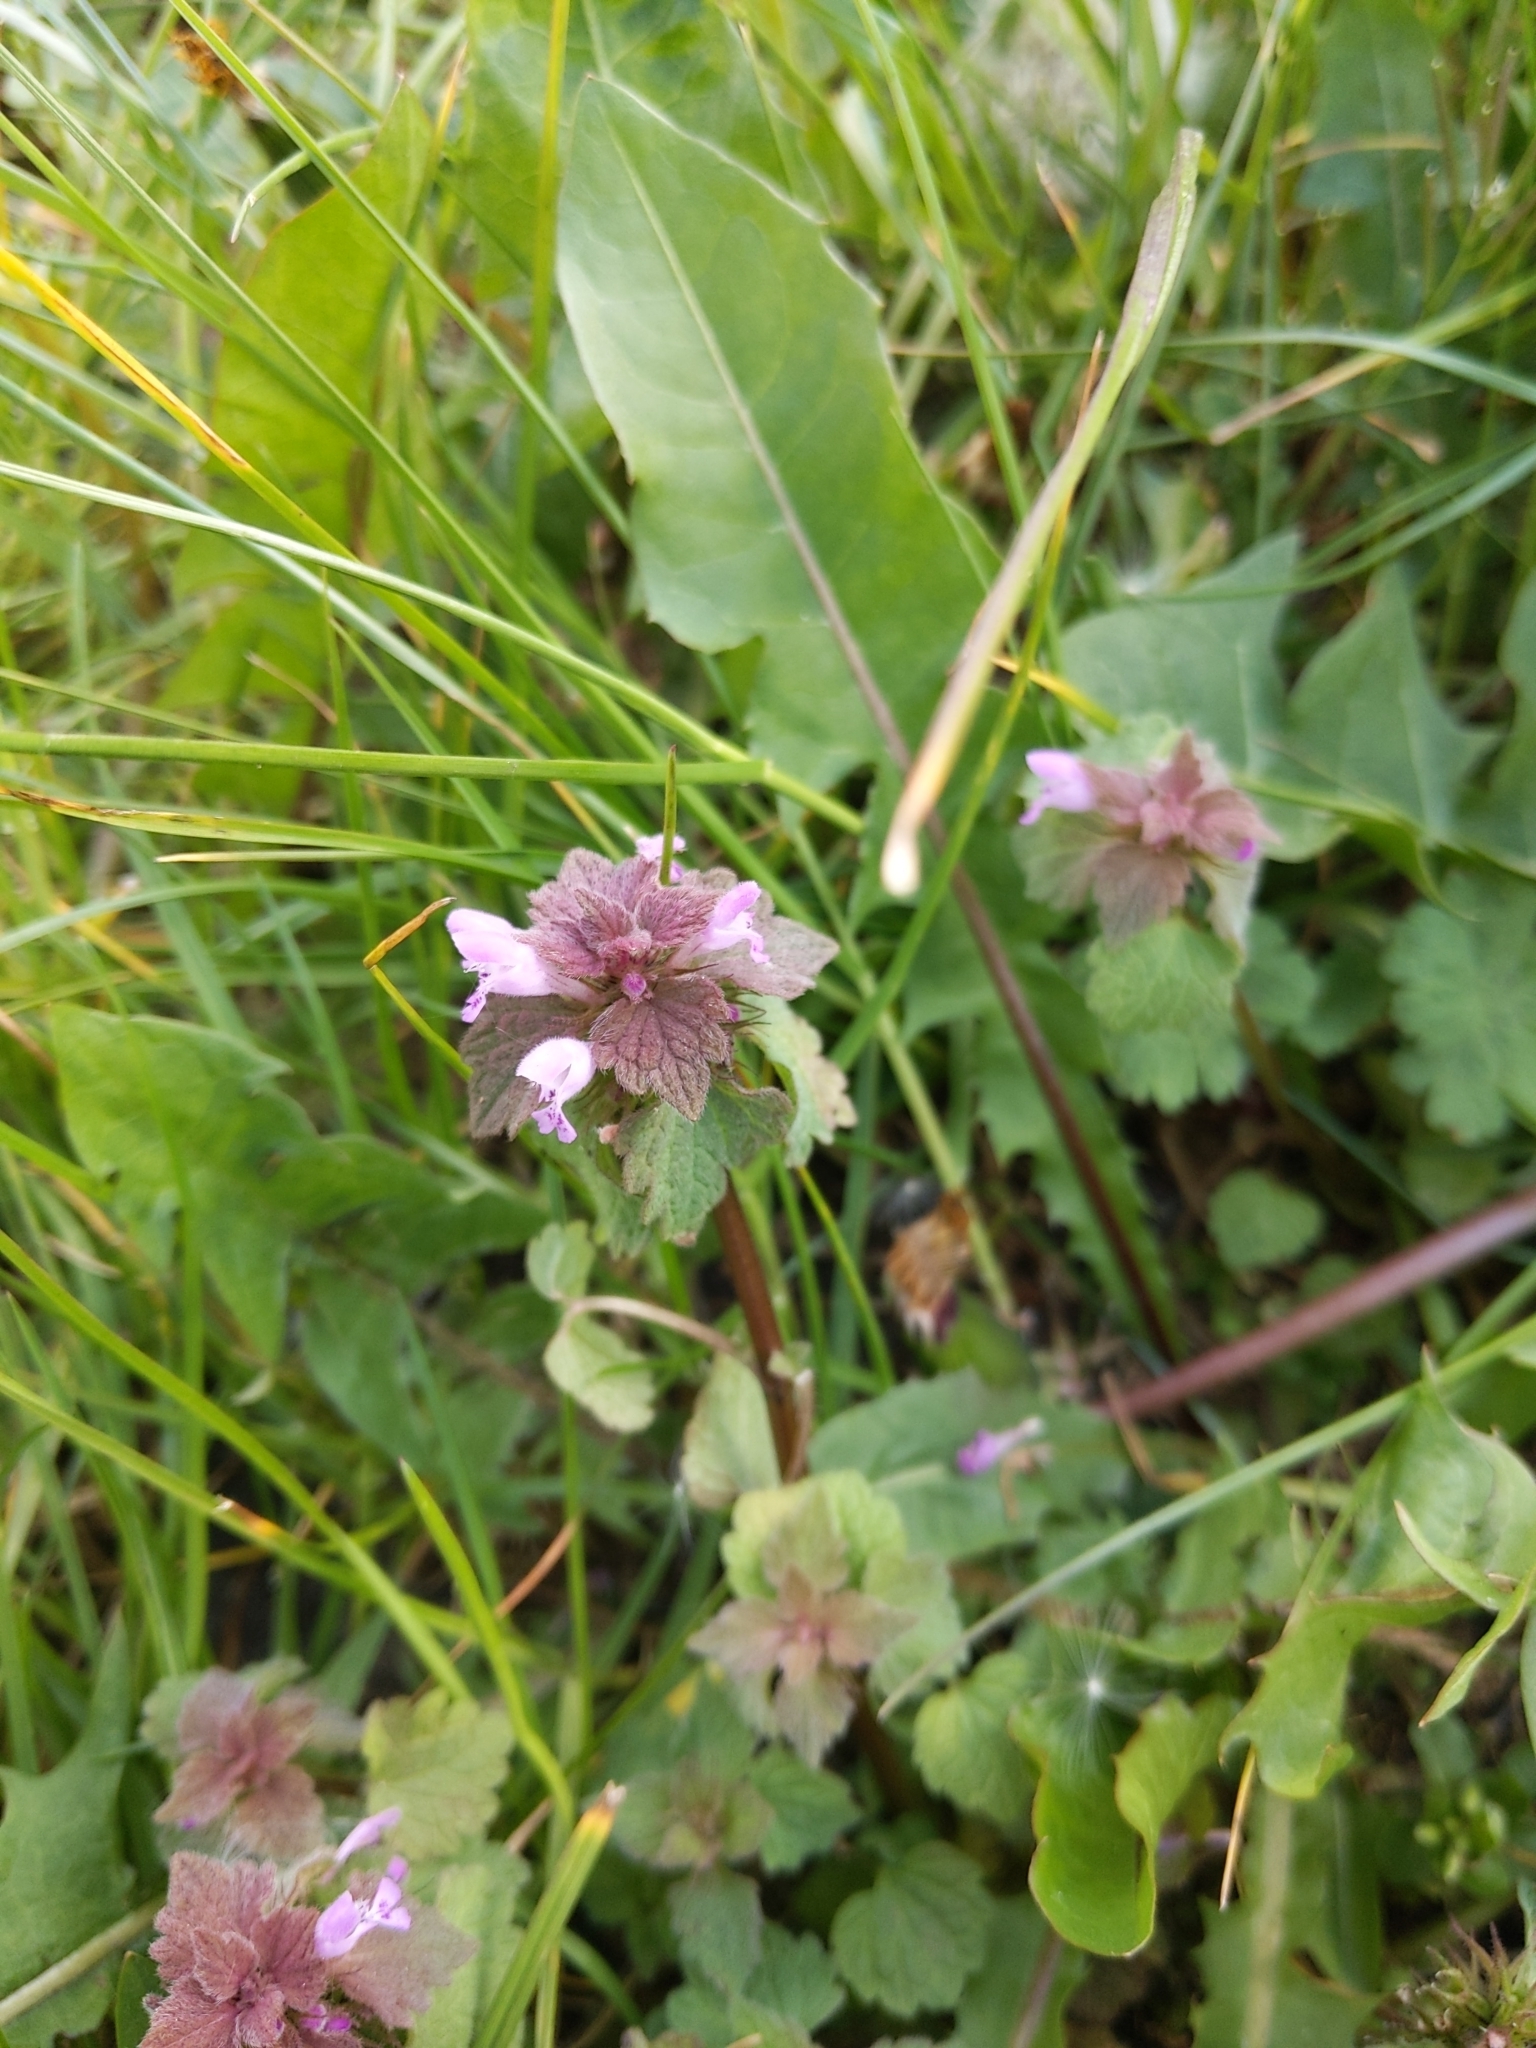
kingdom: Plantae
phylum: Tracheophyta
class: Magnoliopsida
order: Lamiales
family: Lamiaceae
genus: Lamium
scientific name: Lamium purpureum
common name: Red dead-nettle
